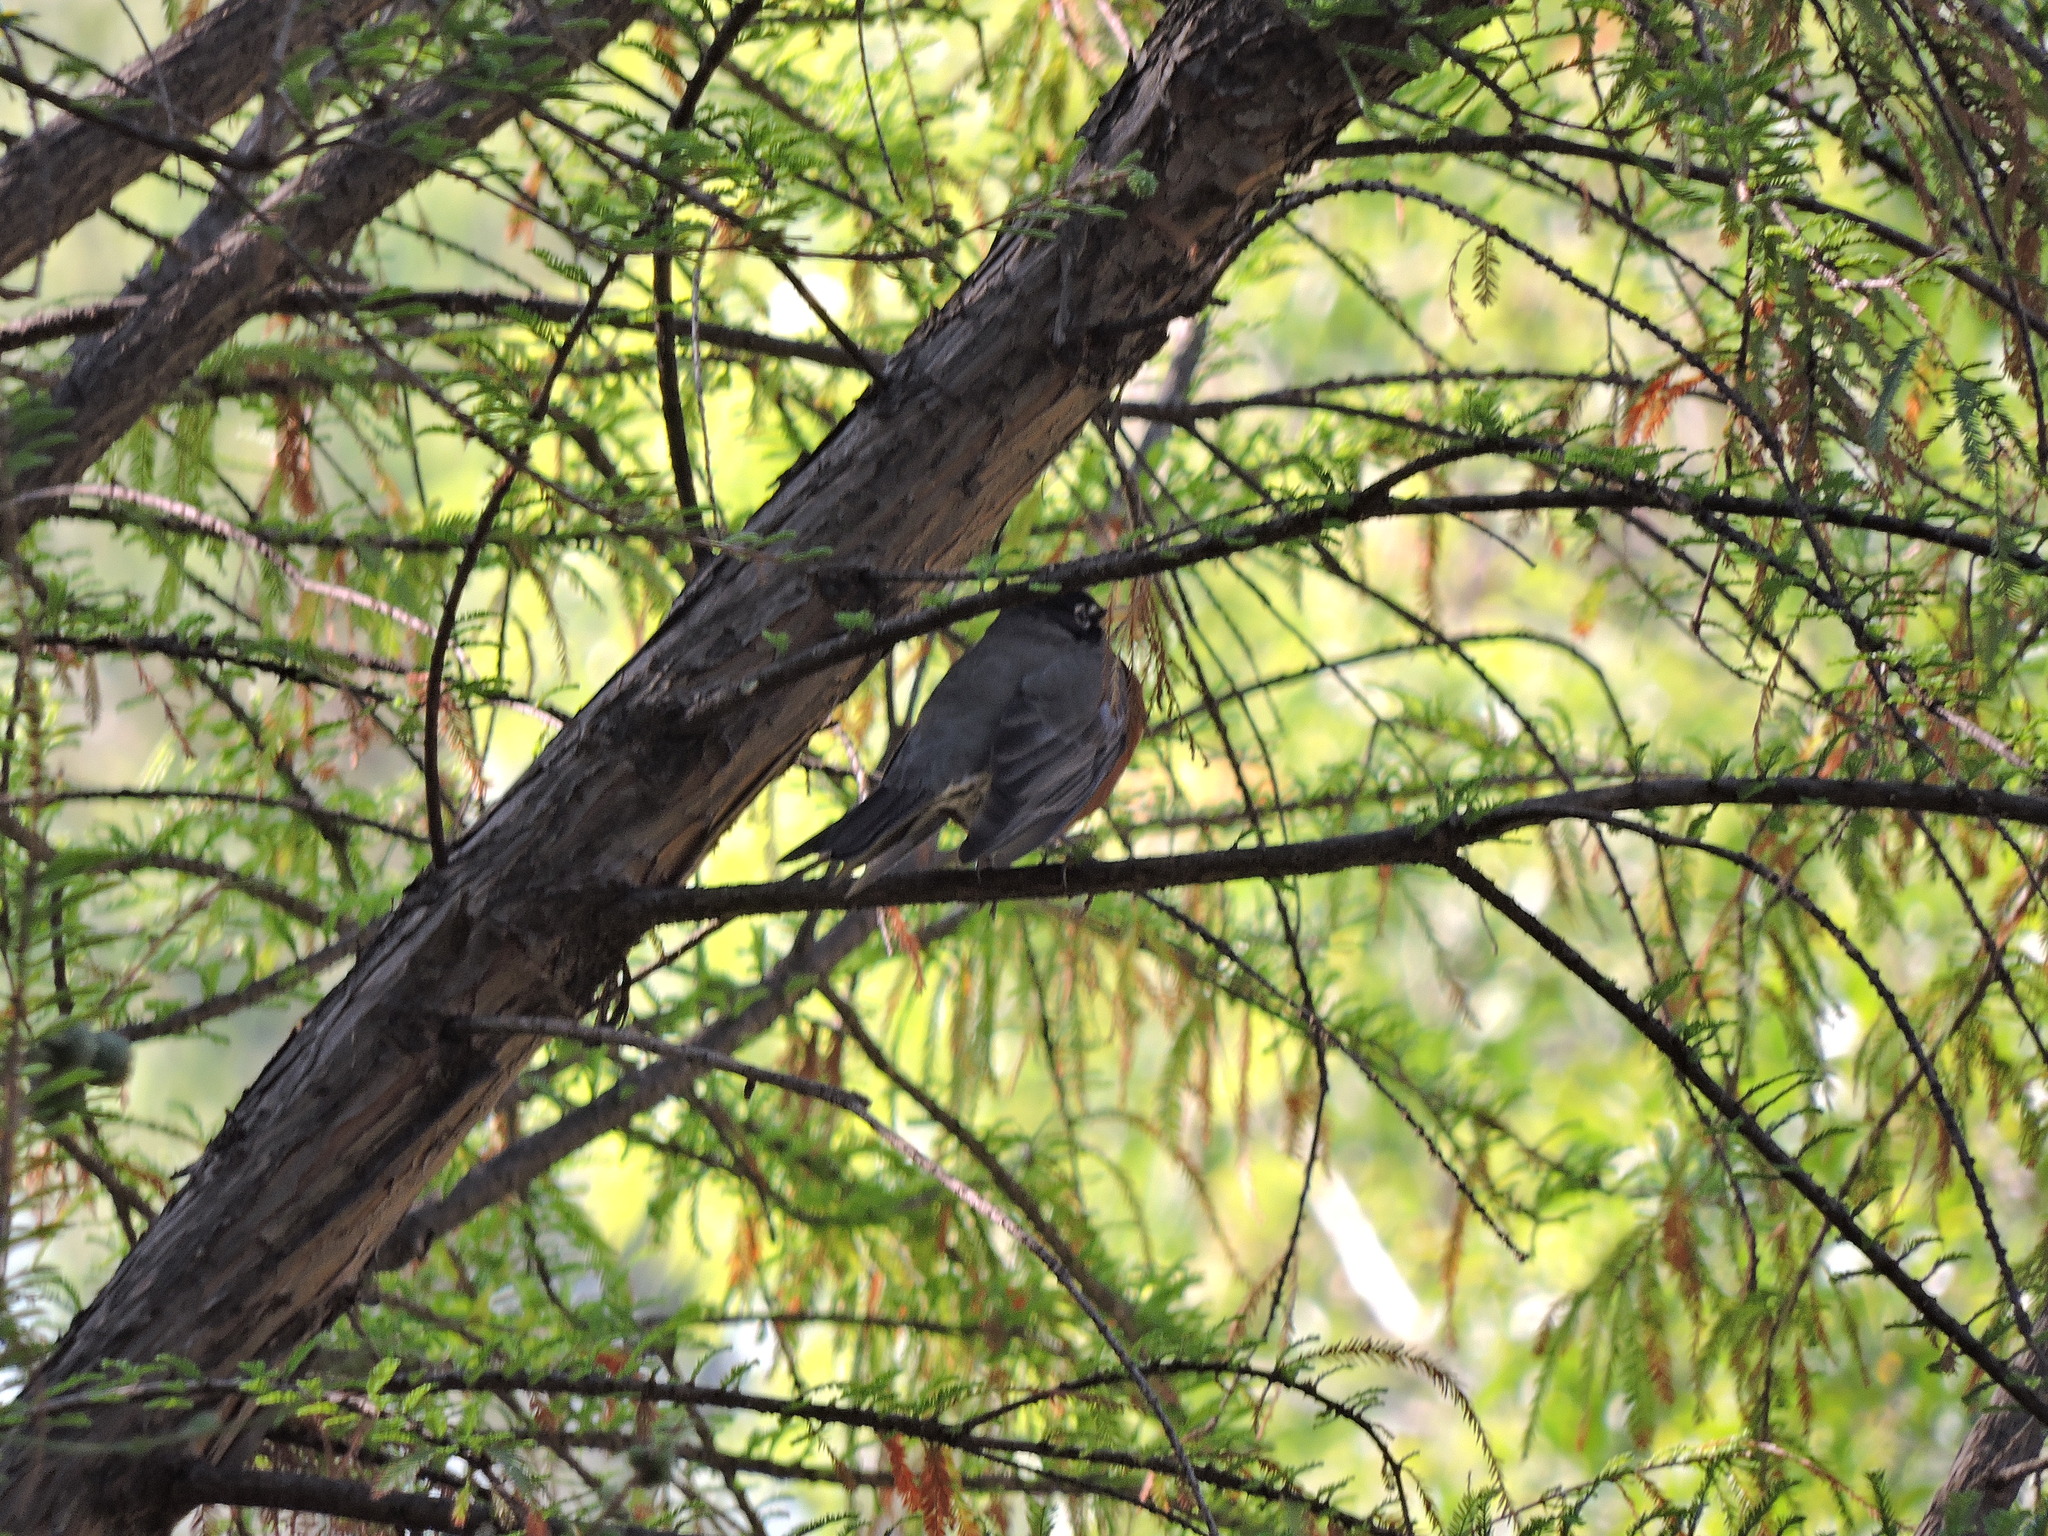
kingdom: Animalia
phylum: Chordata
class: Aves
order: Passeriformes
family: Turdidae
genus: Turdus
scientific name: Turdus migratorius
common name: American robin
